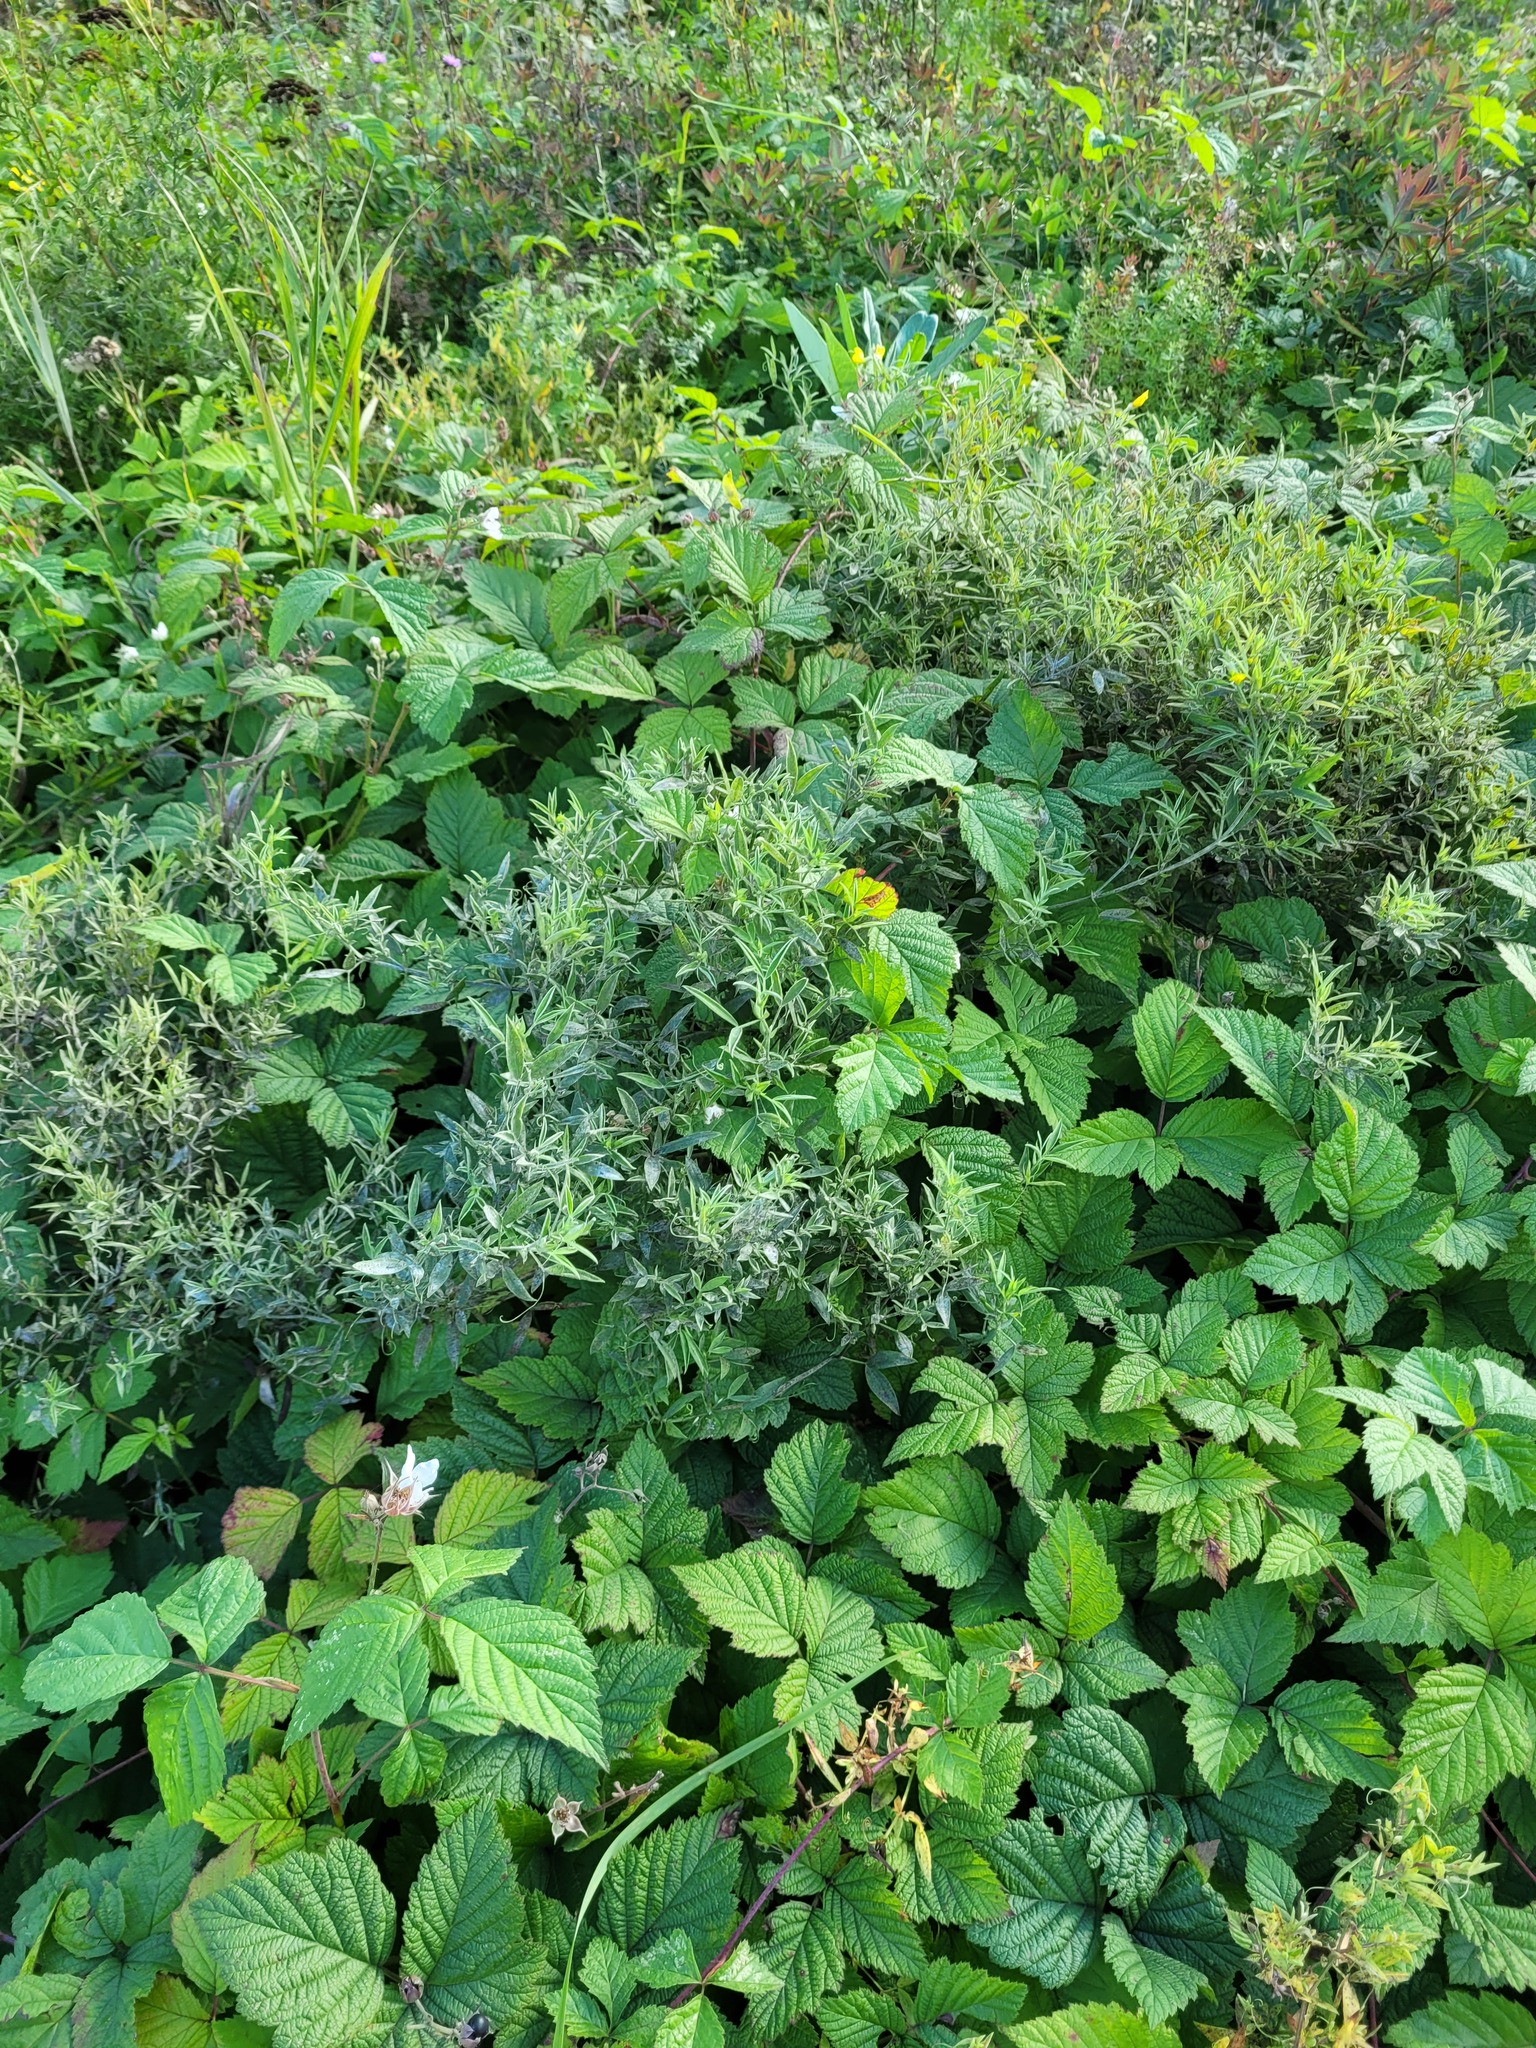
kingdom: Plantae
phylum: Tracheophyta
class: Magnoliopsida
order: Fabales
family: Fabaceae
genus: Lathyrus
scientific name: Lathyrus pratensis
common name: Meadow vetchling
